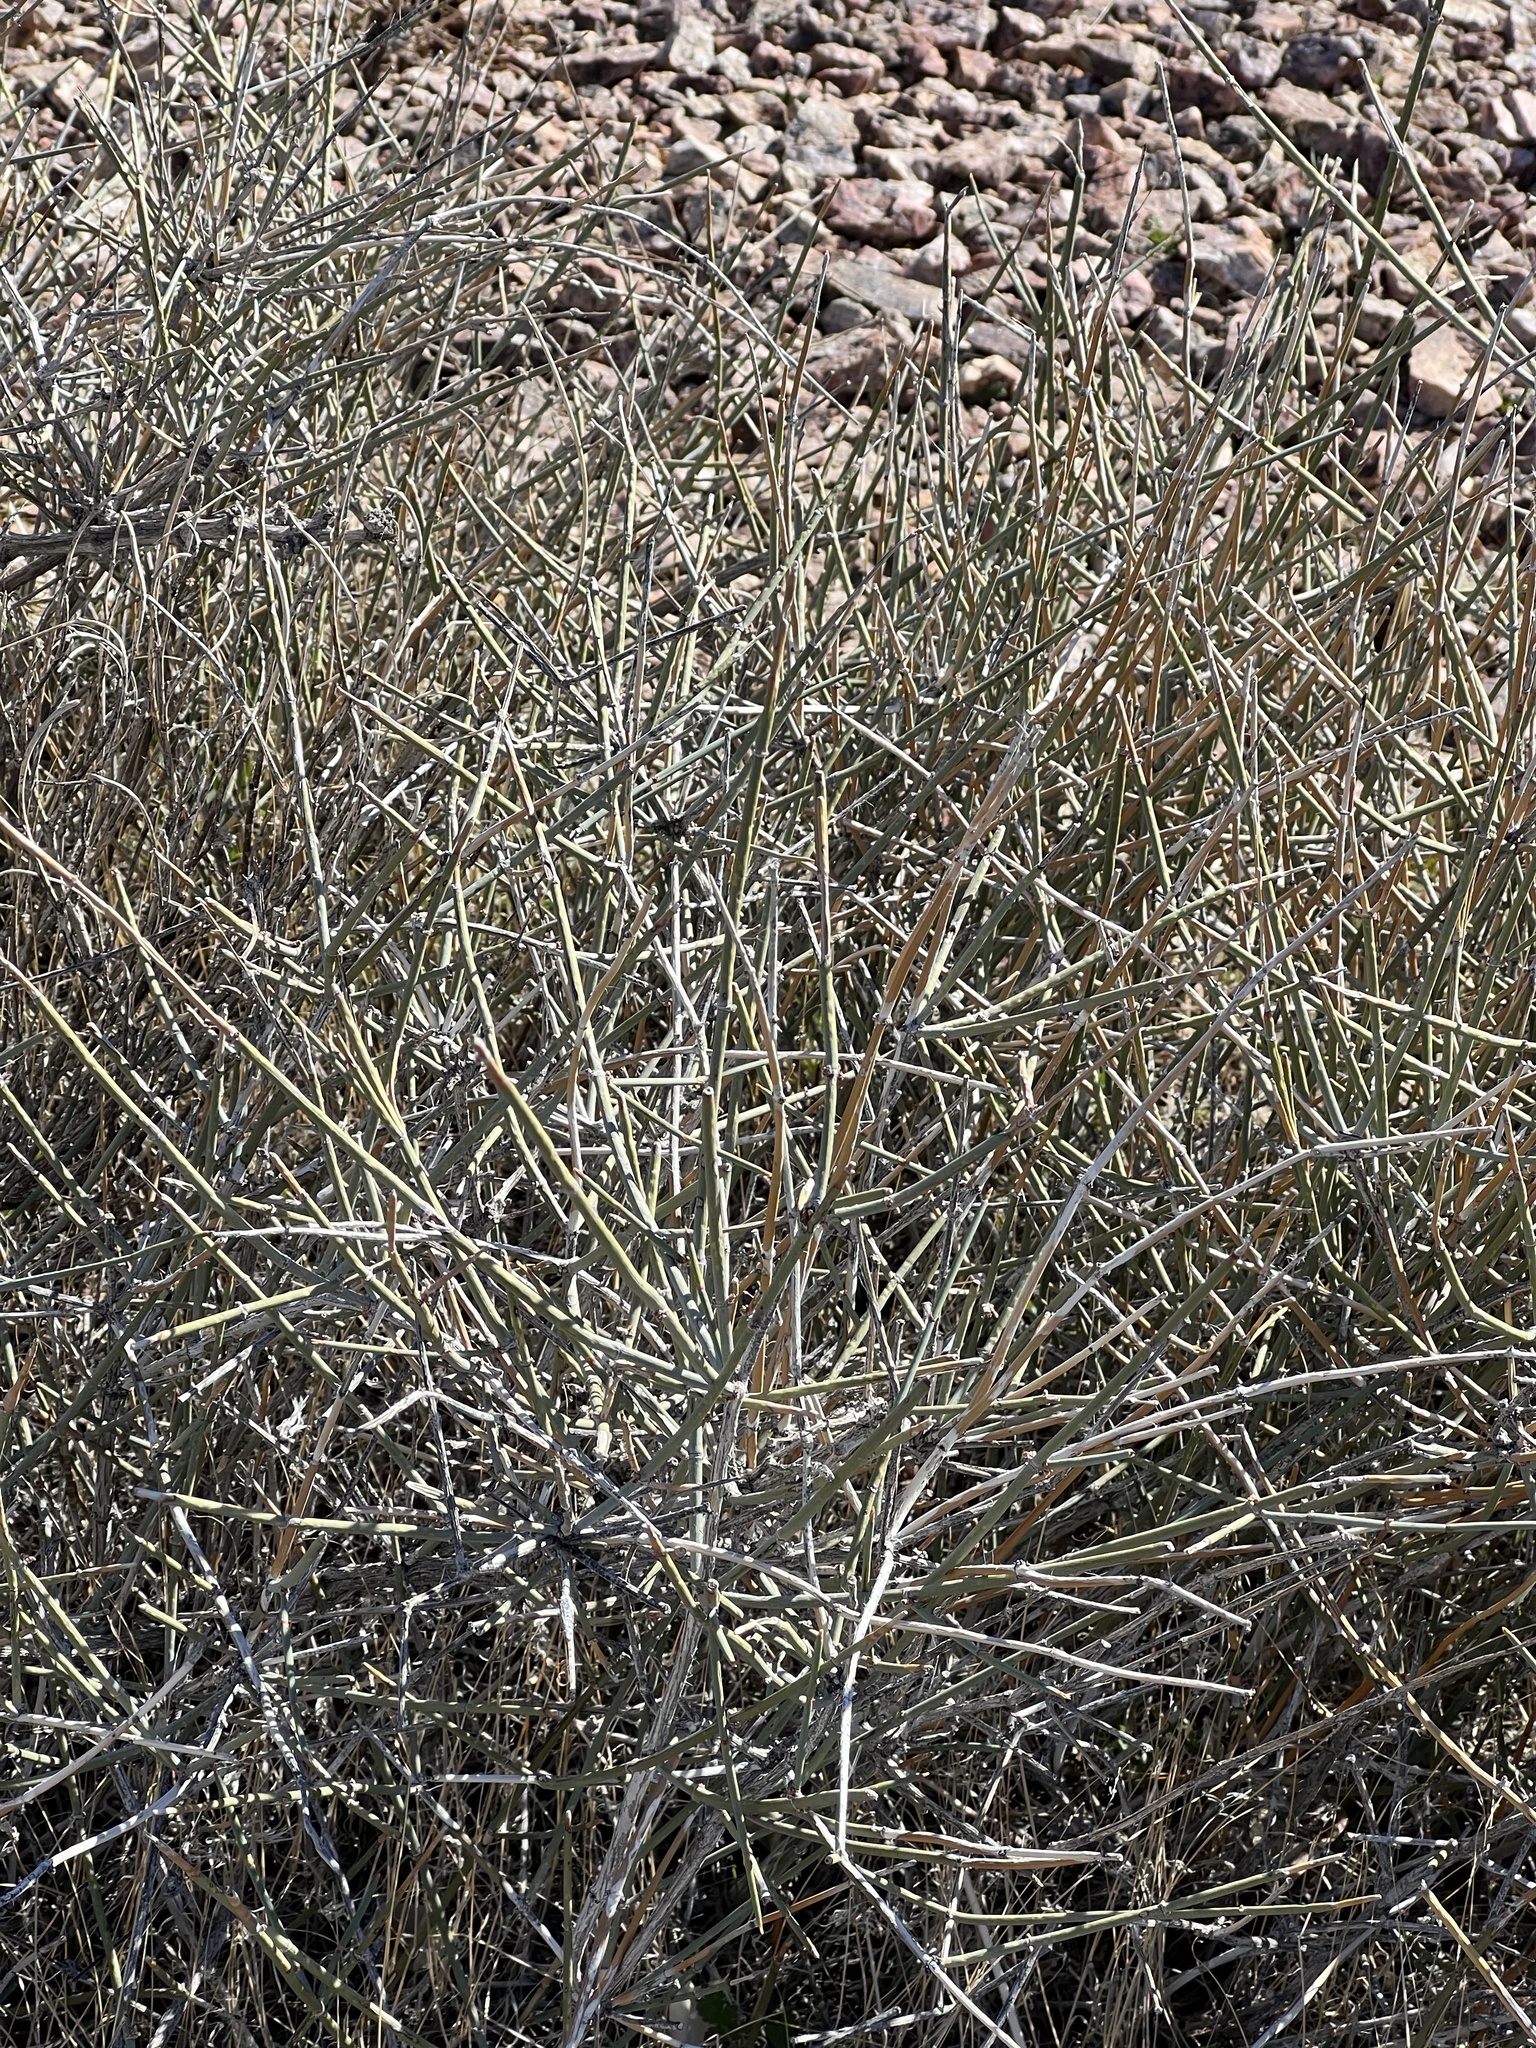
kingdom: Plantae
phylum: Tracheophyta
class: Gnetopsida
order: Ephedrales
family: Ephedraceae
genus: Ephedra
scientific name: Ephedra nevadensis
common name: Gray ephedra
